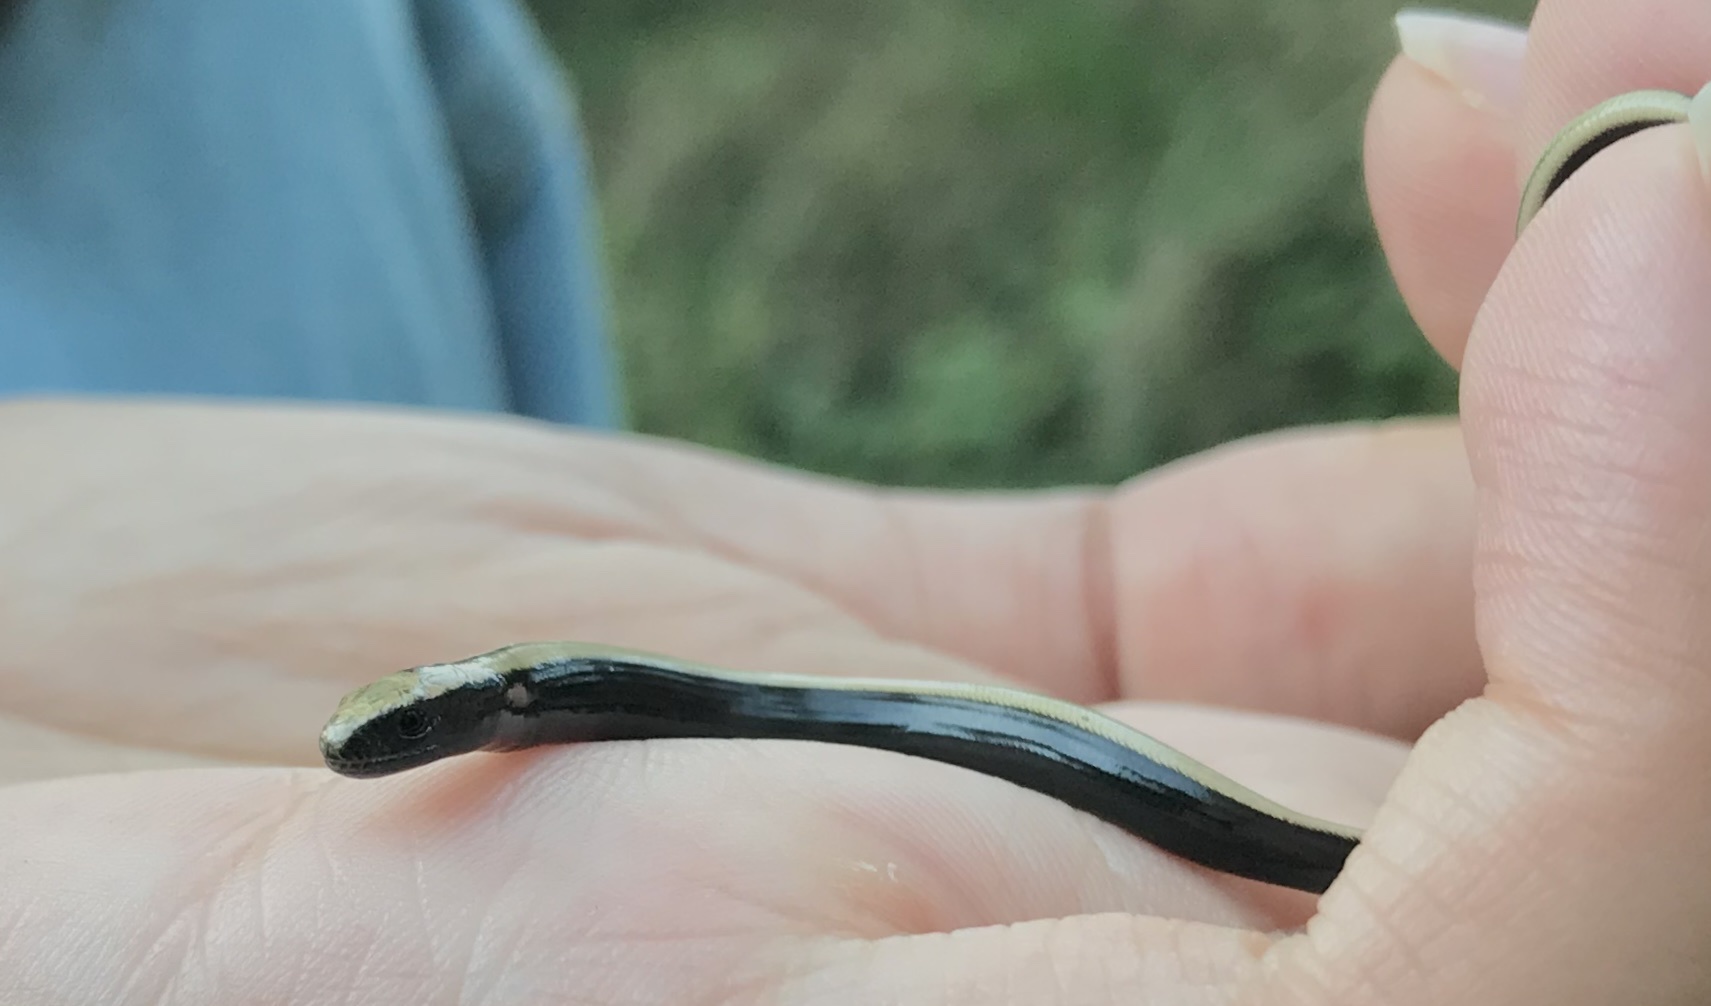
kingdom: Animalia
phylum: Chordata
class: Squamata
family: Anguidae
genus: Anguis
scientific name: Anguis fragilis
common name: Slow worm
